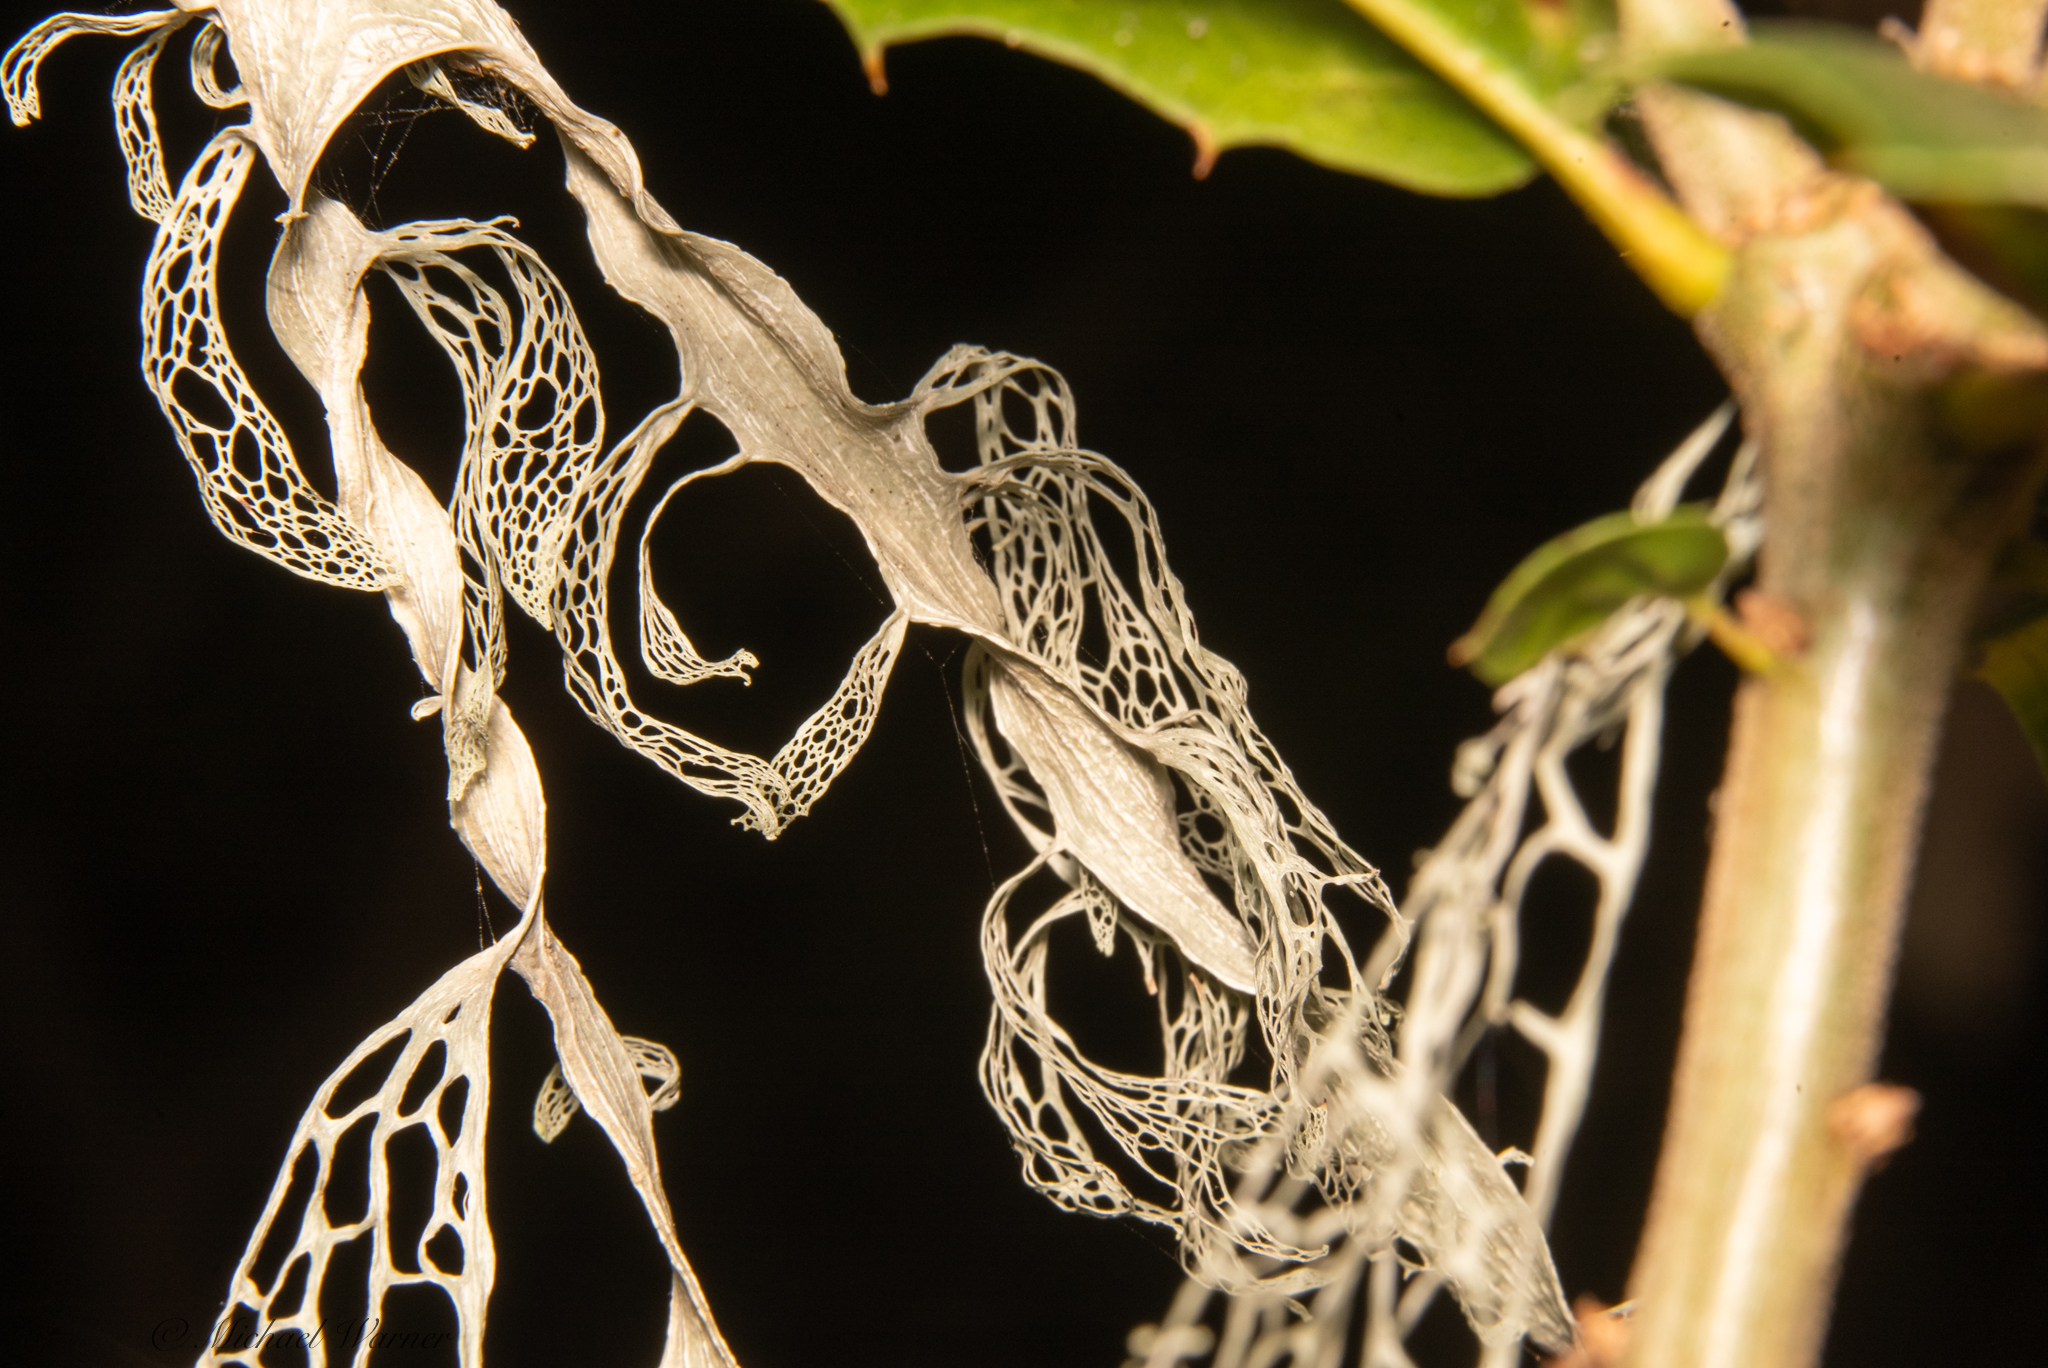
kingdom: Fungi
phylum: Ascomycota
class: Lecanoromycetes
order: Lecanorales
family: Ramalinaceae
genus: Ramalina
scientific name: Ramalina menziesii
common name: Lace lichen
